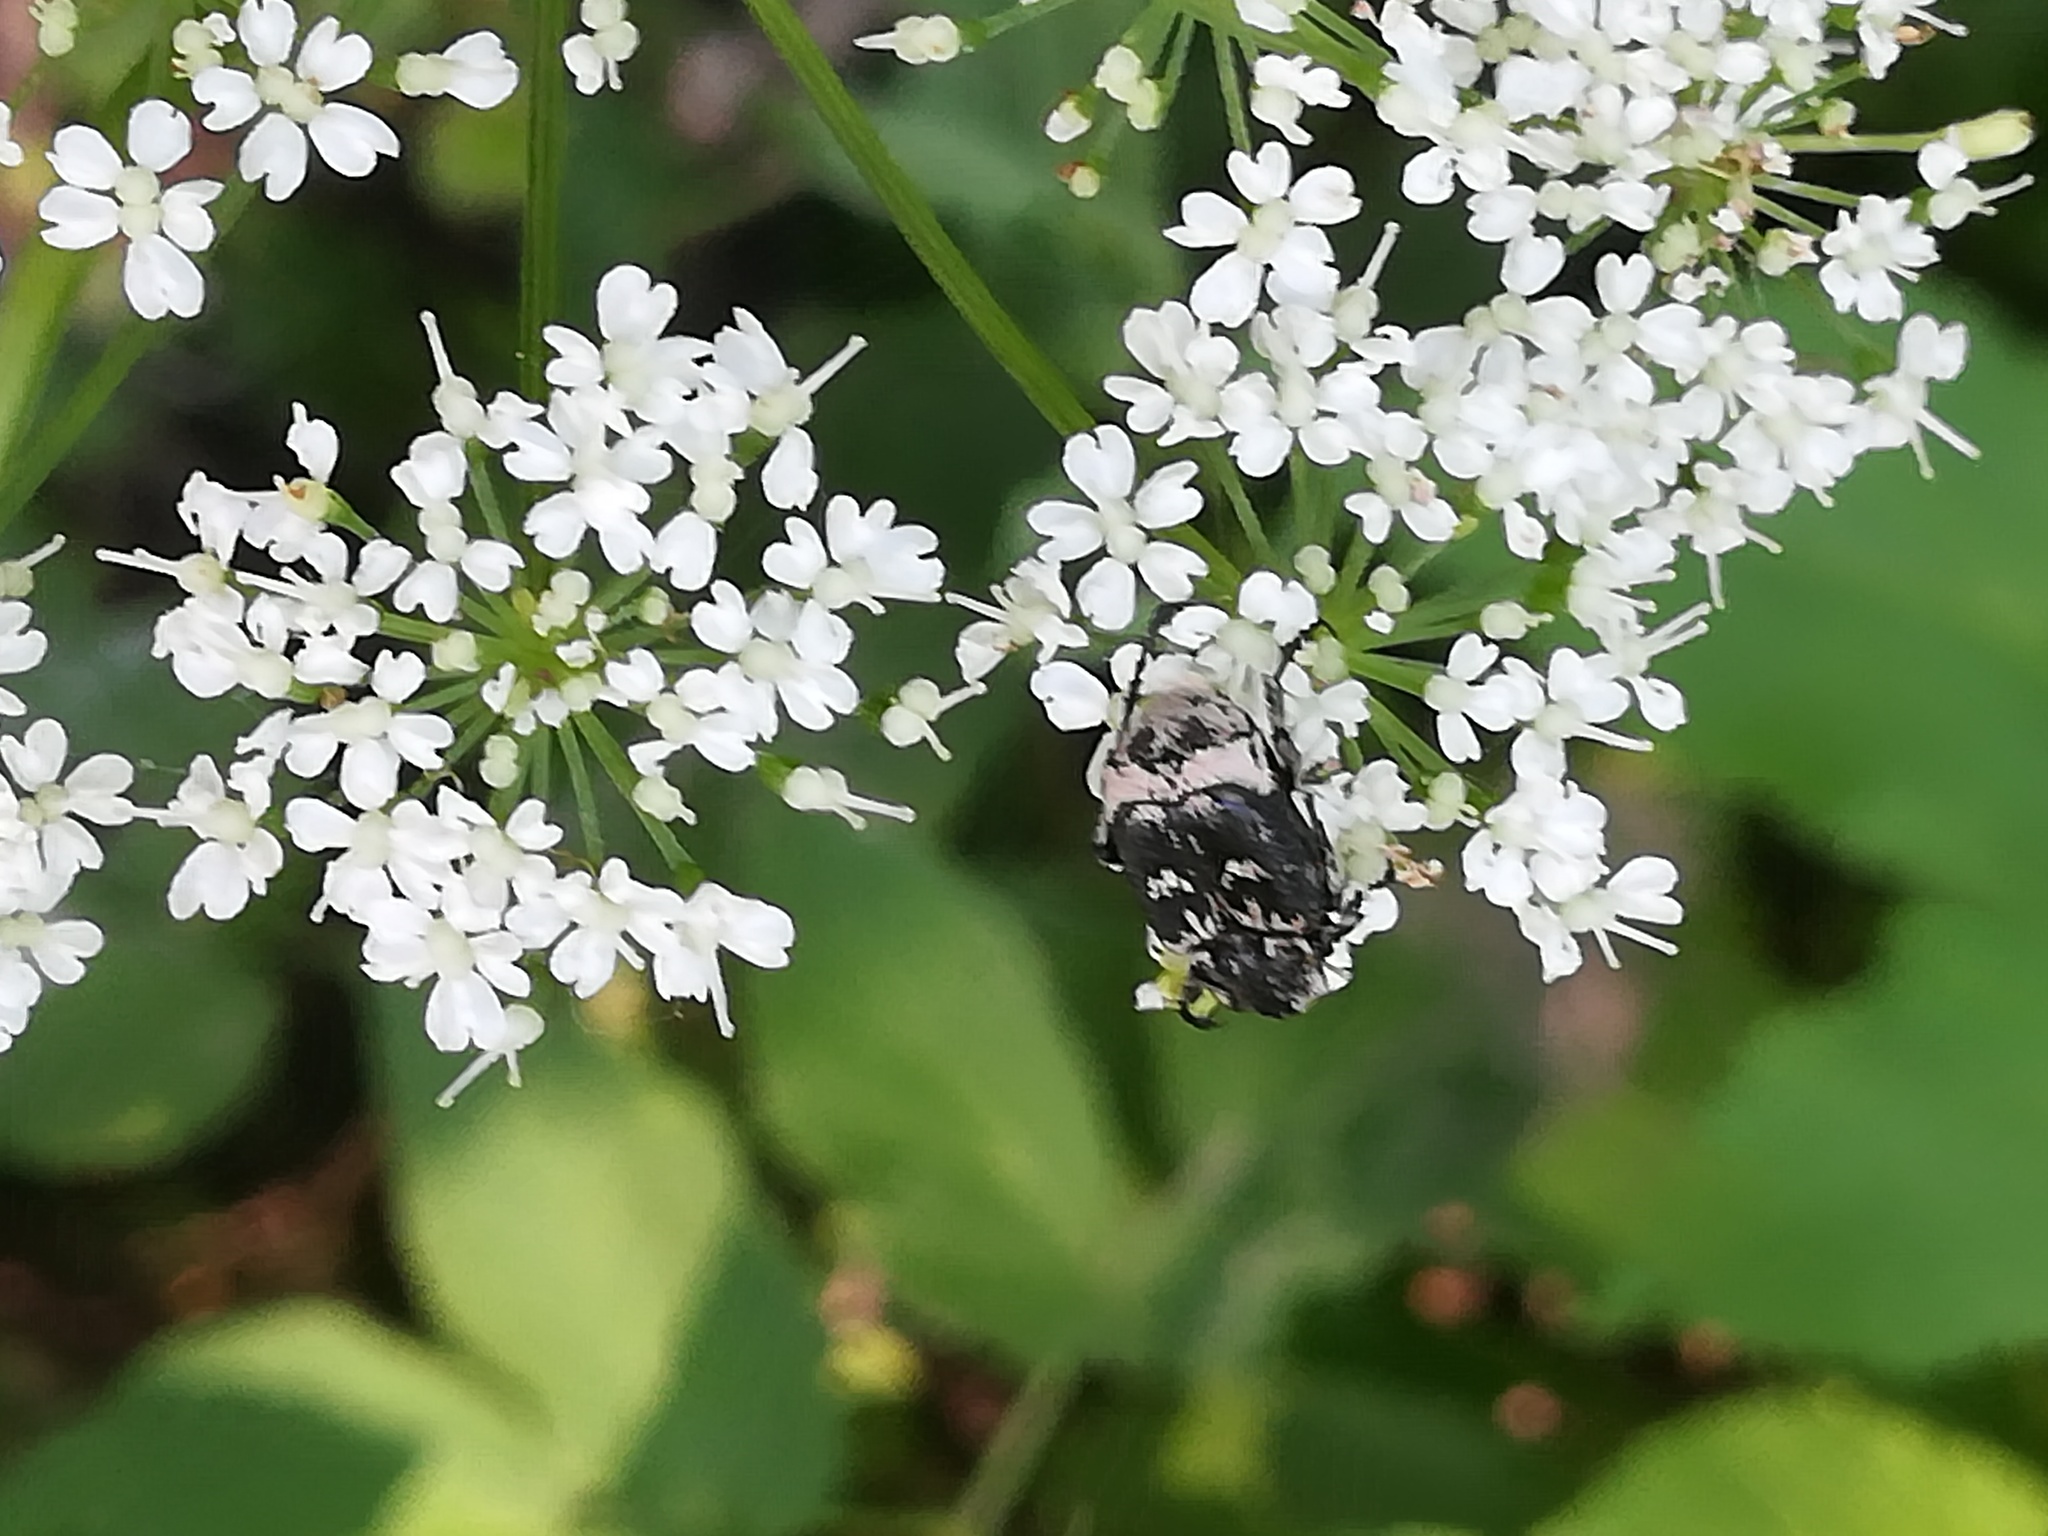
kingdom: Animalia
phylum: Arthropoda
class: Insecta
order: Coleoptera
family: Scarabaeidae
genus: Valgus
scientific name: Valgus hemipterus
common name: Bug flower chafer
